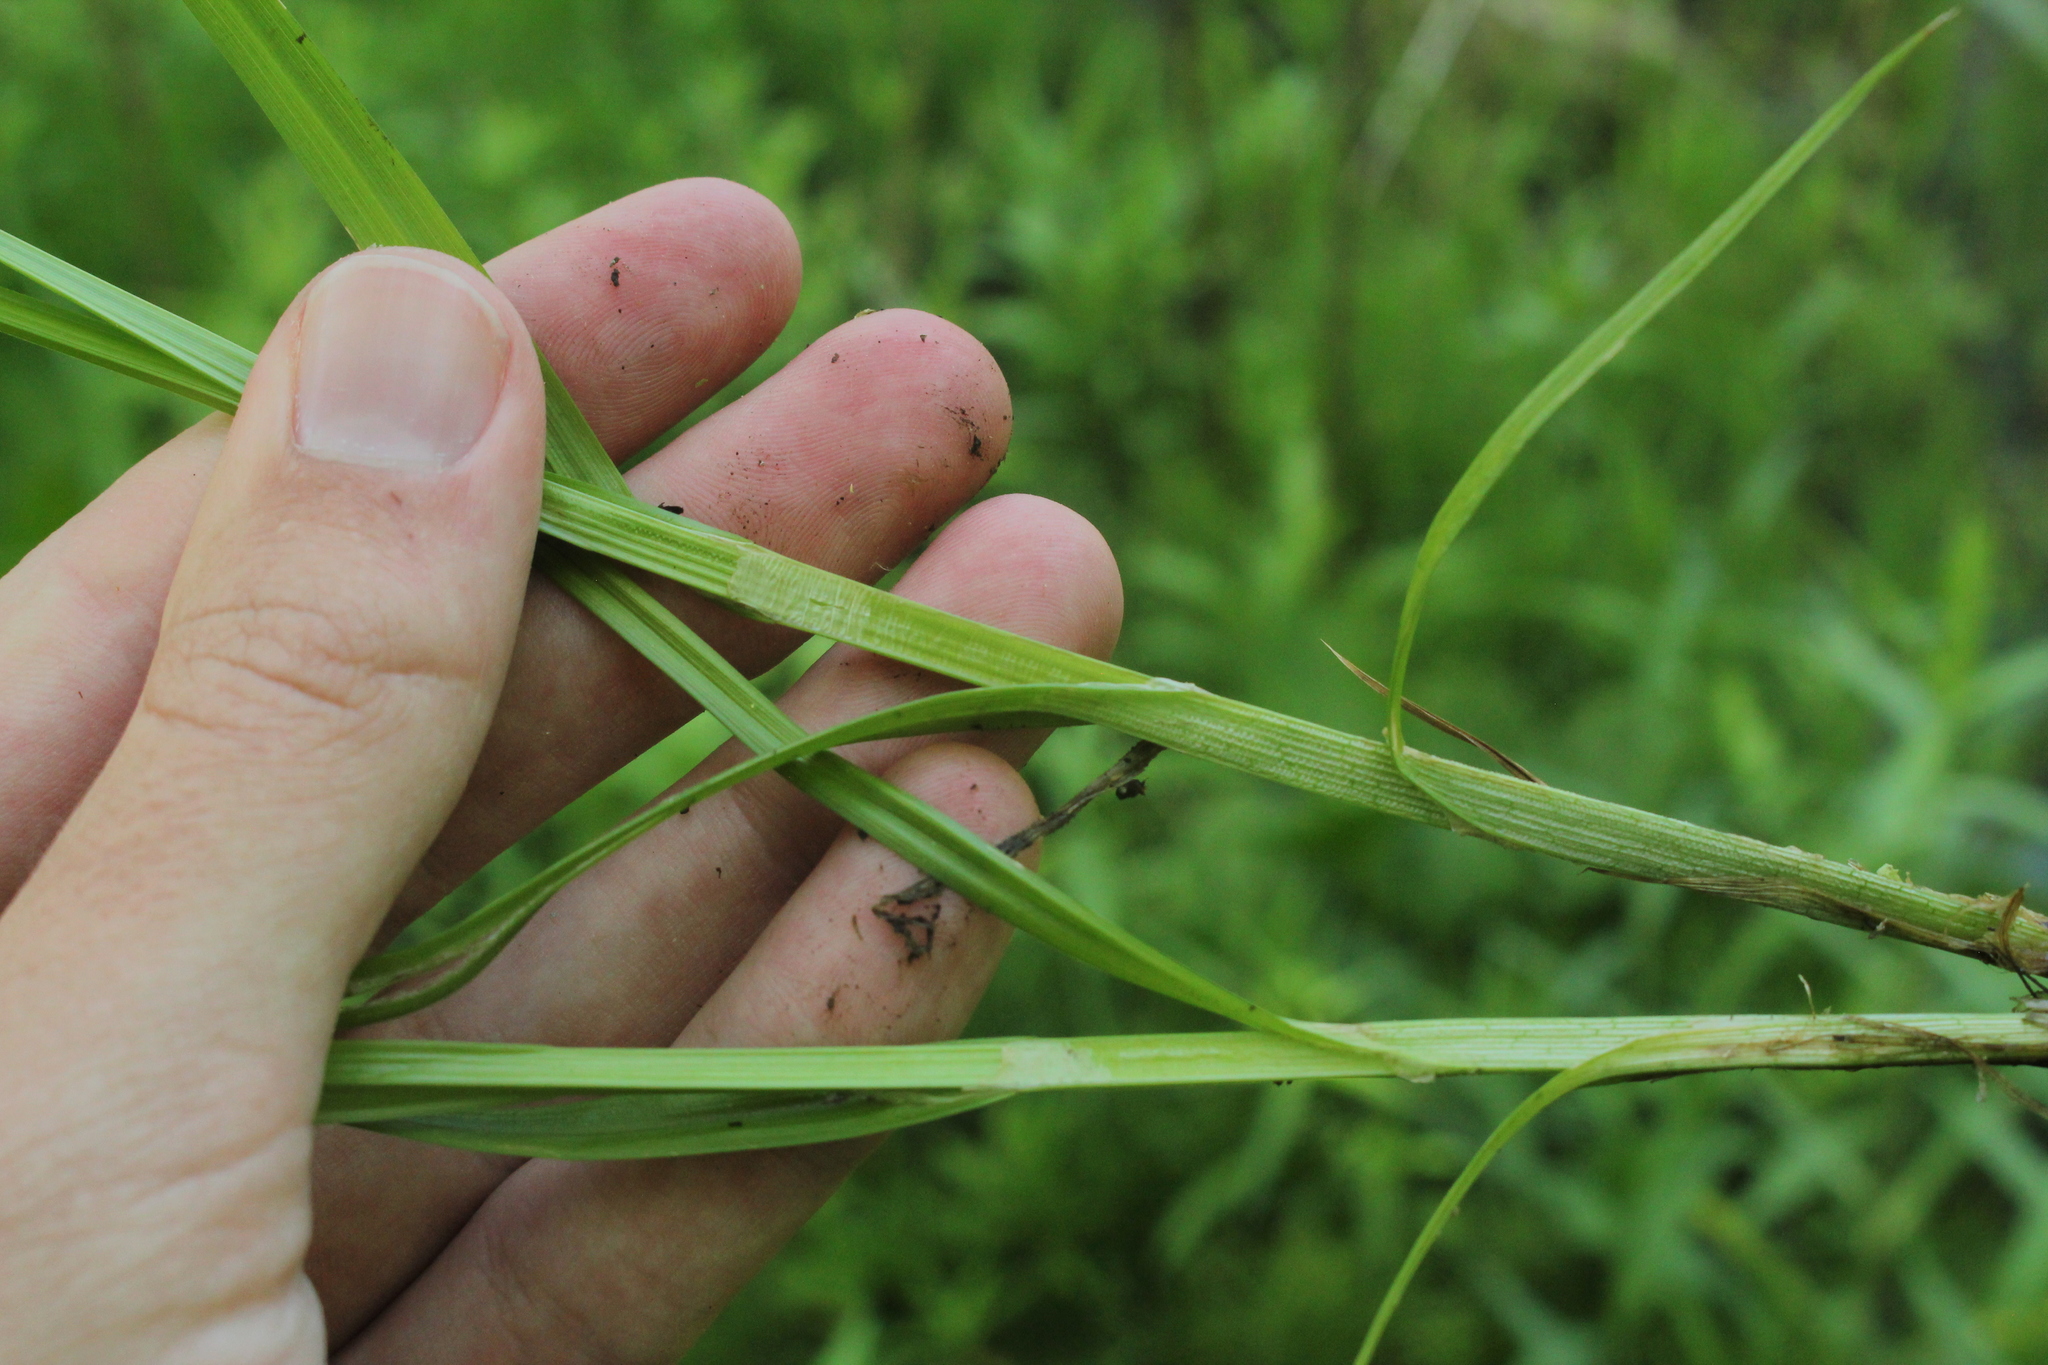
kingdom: Plantae
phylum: Tracheophyta
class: Liliopsida
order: Poales
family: Cyperaceae
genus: Carex
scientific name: Carex stipata
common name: Awl-fruited sedge
